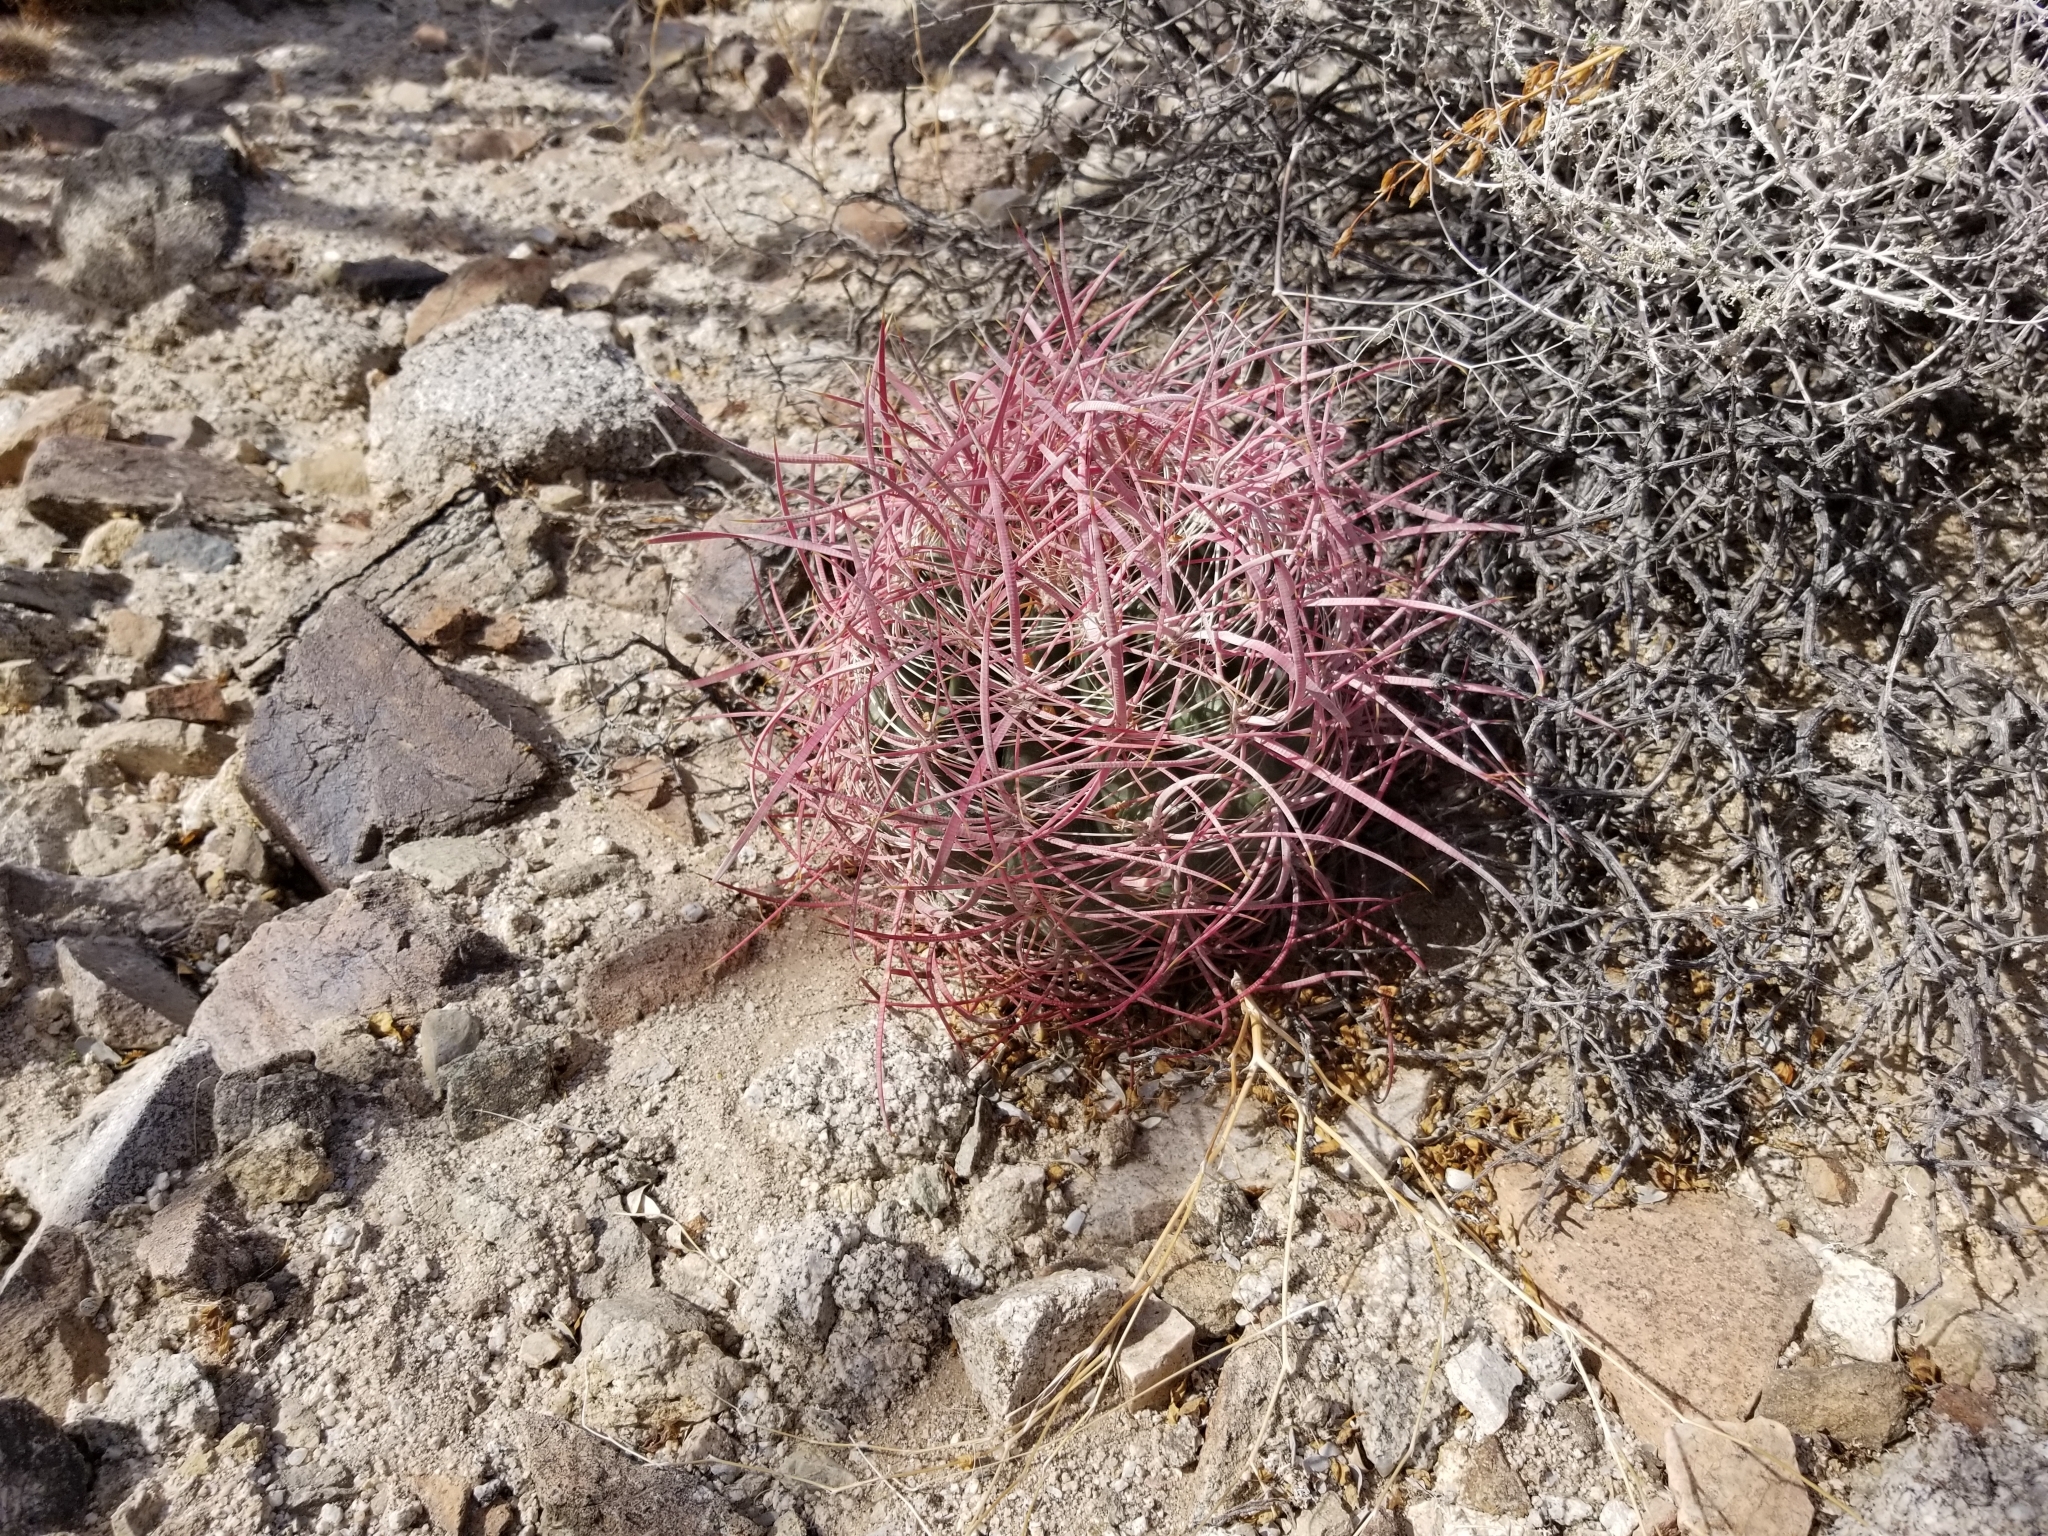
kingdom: Plantae
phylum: Tracheophyta
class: Magnoliopsida
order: Caryophyllales
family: Cactaceae
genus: Ferocactus
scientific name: Ferocactus cylindraceus
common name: California barrel cactus
